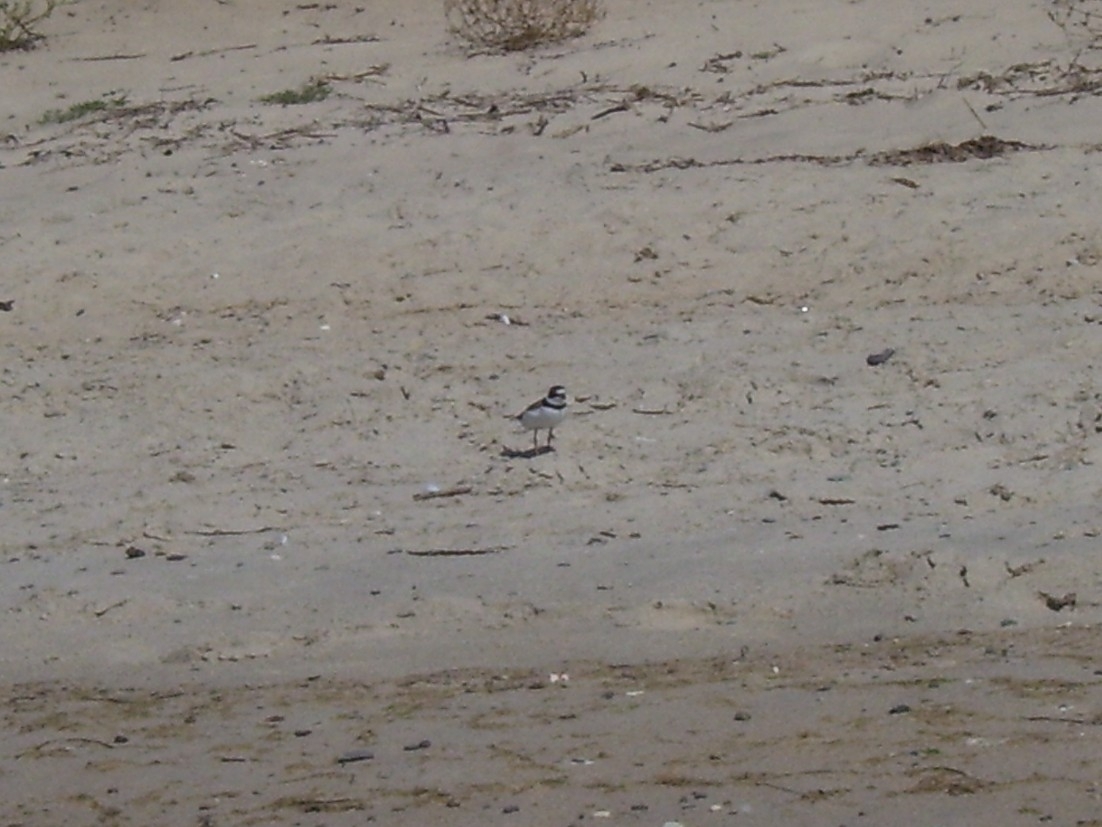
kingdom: Animalia
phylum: Chordata
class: Aves
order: Charadriiformes
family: Charadriidae
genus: Charadrius
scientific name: Charadrius semipalmatus
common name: Semipalmated plover
